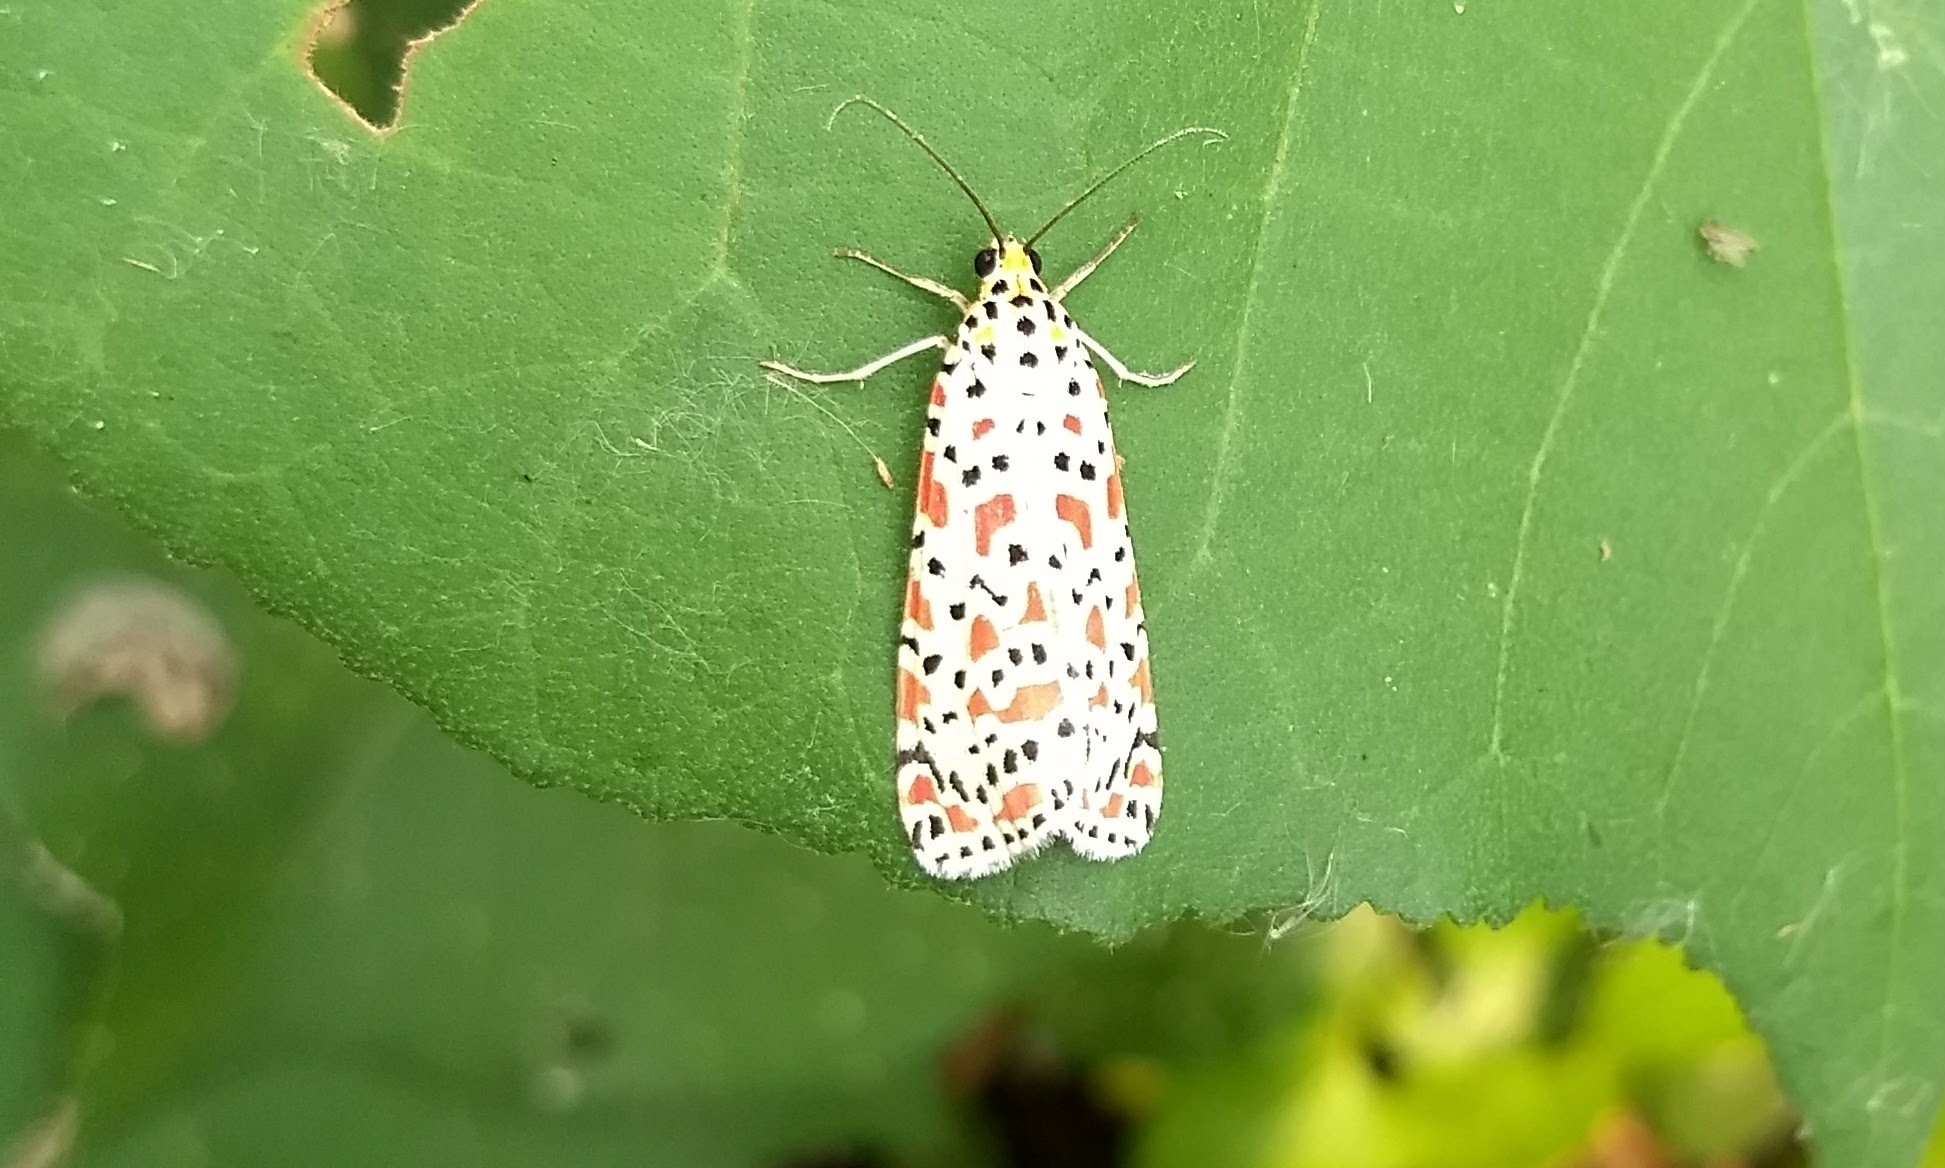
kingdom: Animalia
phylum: Arthropoda
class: Insecta
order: Lepidoptera
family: Erebidae
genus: Utetheisa
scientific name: Utetheisa lotrix
